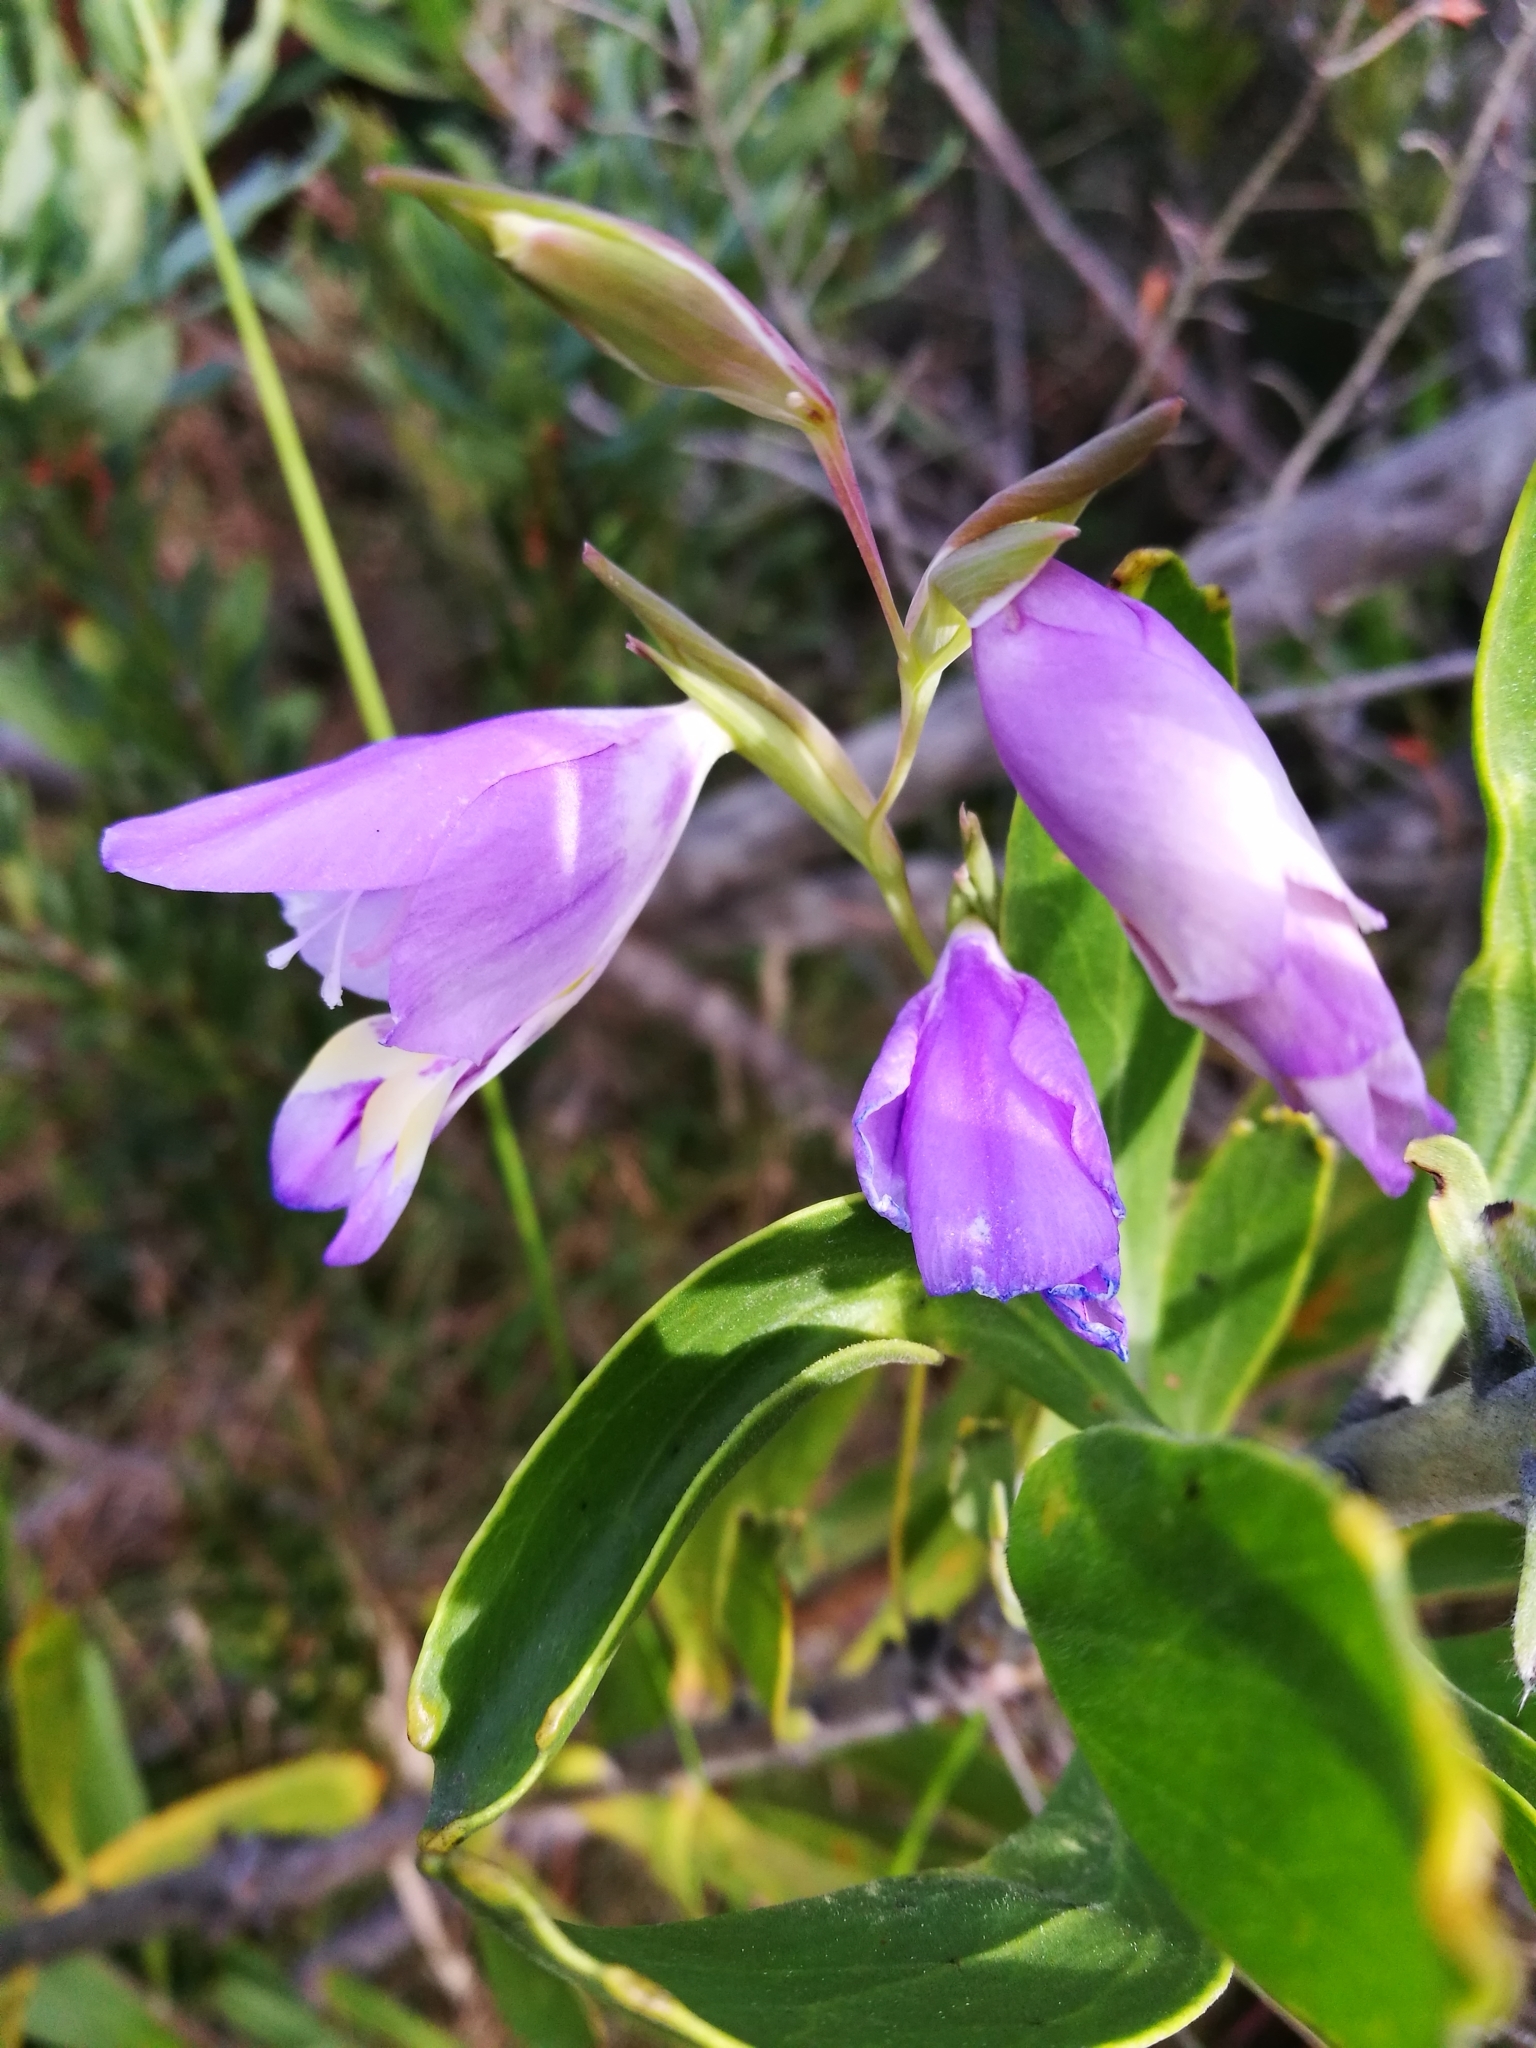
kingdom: Plantae
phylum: Tracheophyta
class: Liliopsida
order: Asparagales
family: Iridaceae
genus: Gladiolus
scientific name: Gladiolus rogersii
